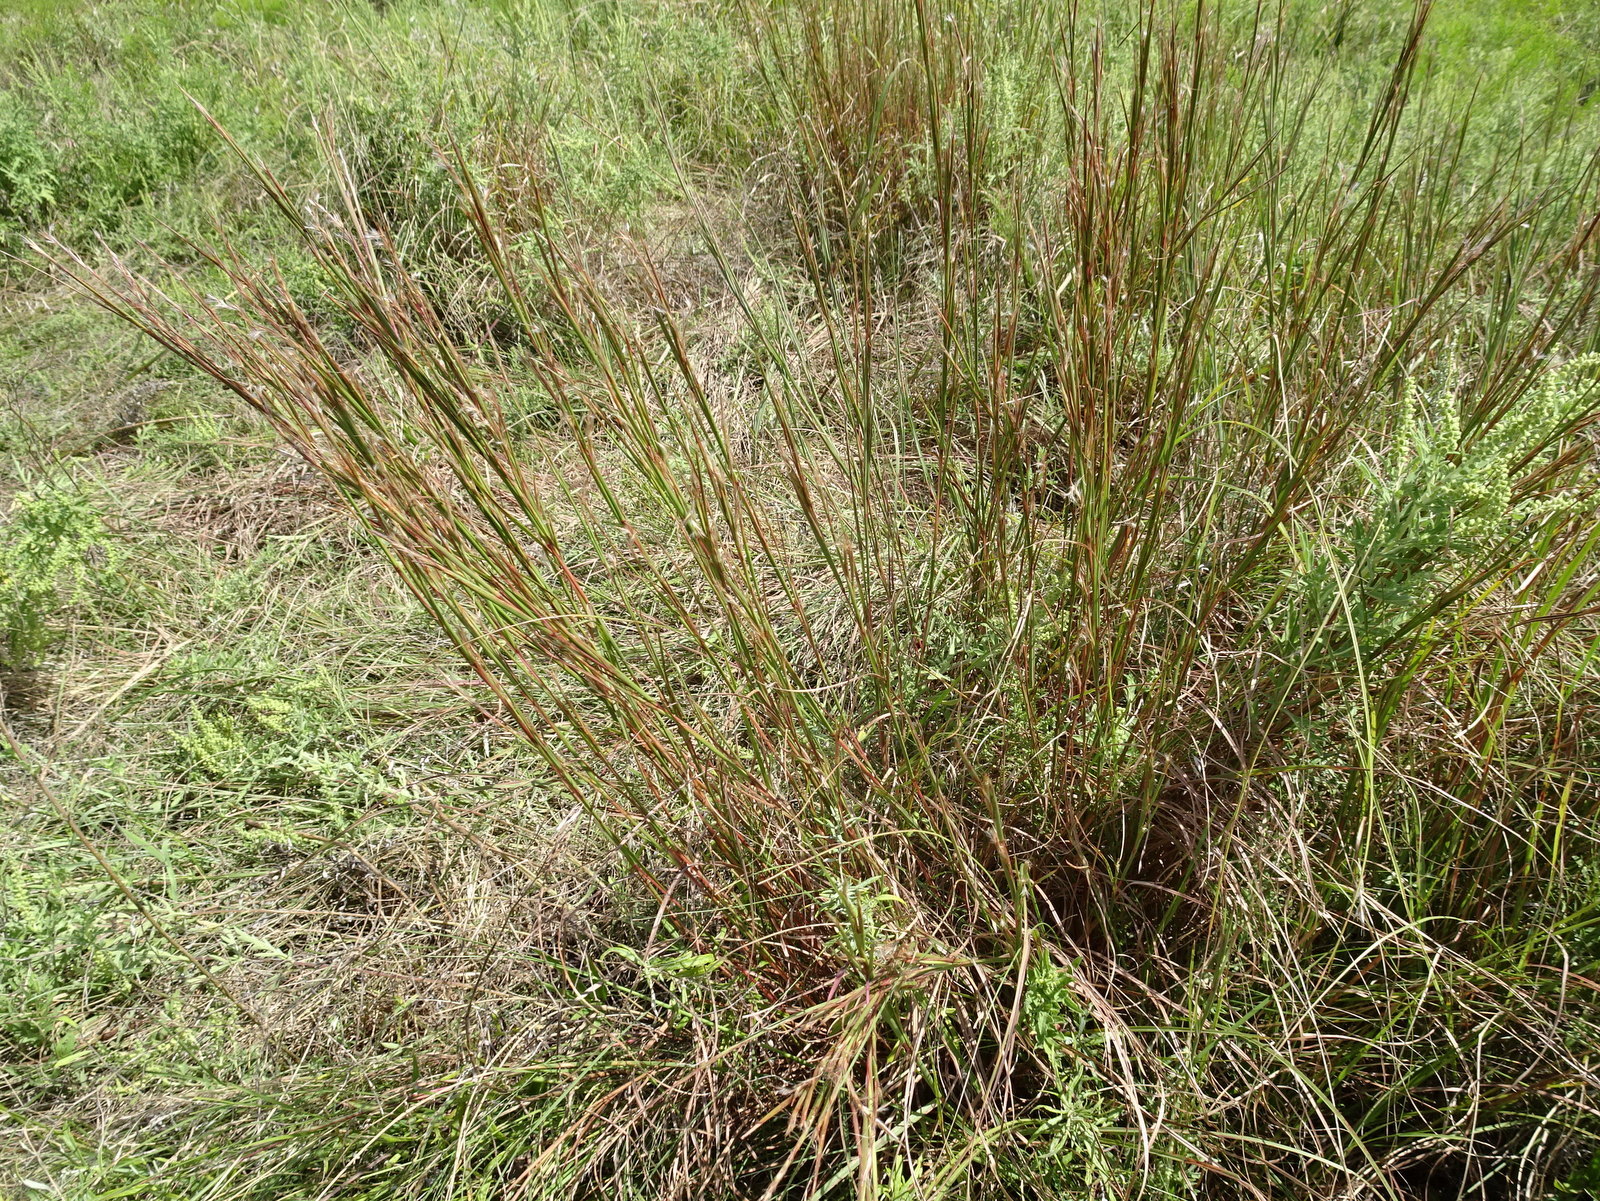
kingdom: Plantae
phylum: Tracheophyta
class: Liliopsida
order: Poales
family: Poaceae
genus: Schizachyrium
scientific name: Schizachyrium scoparium
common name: Little bluestem
